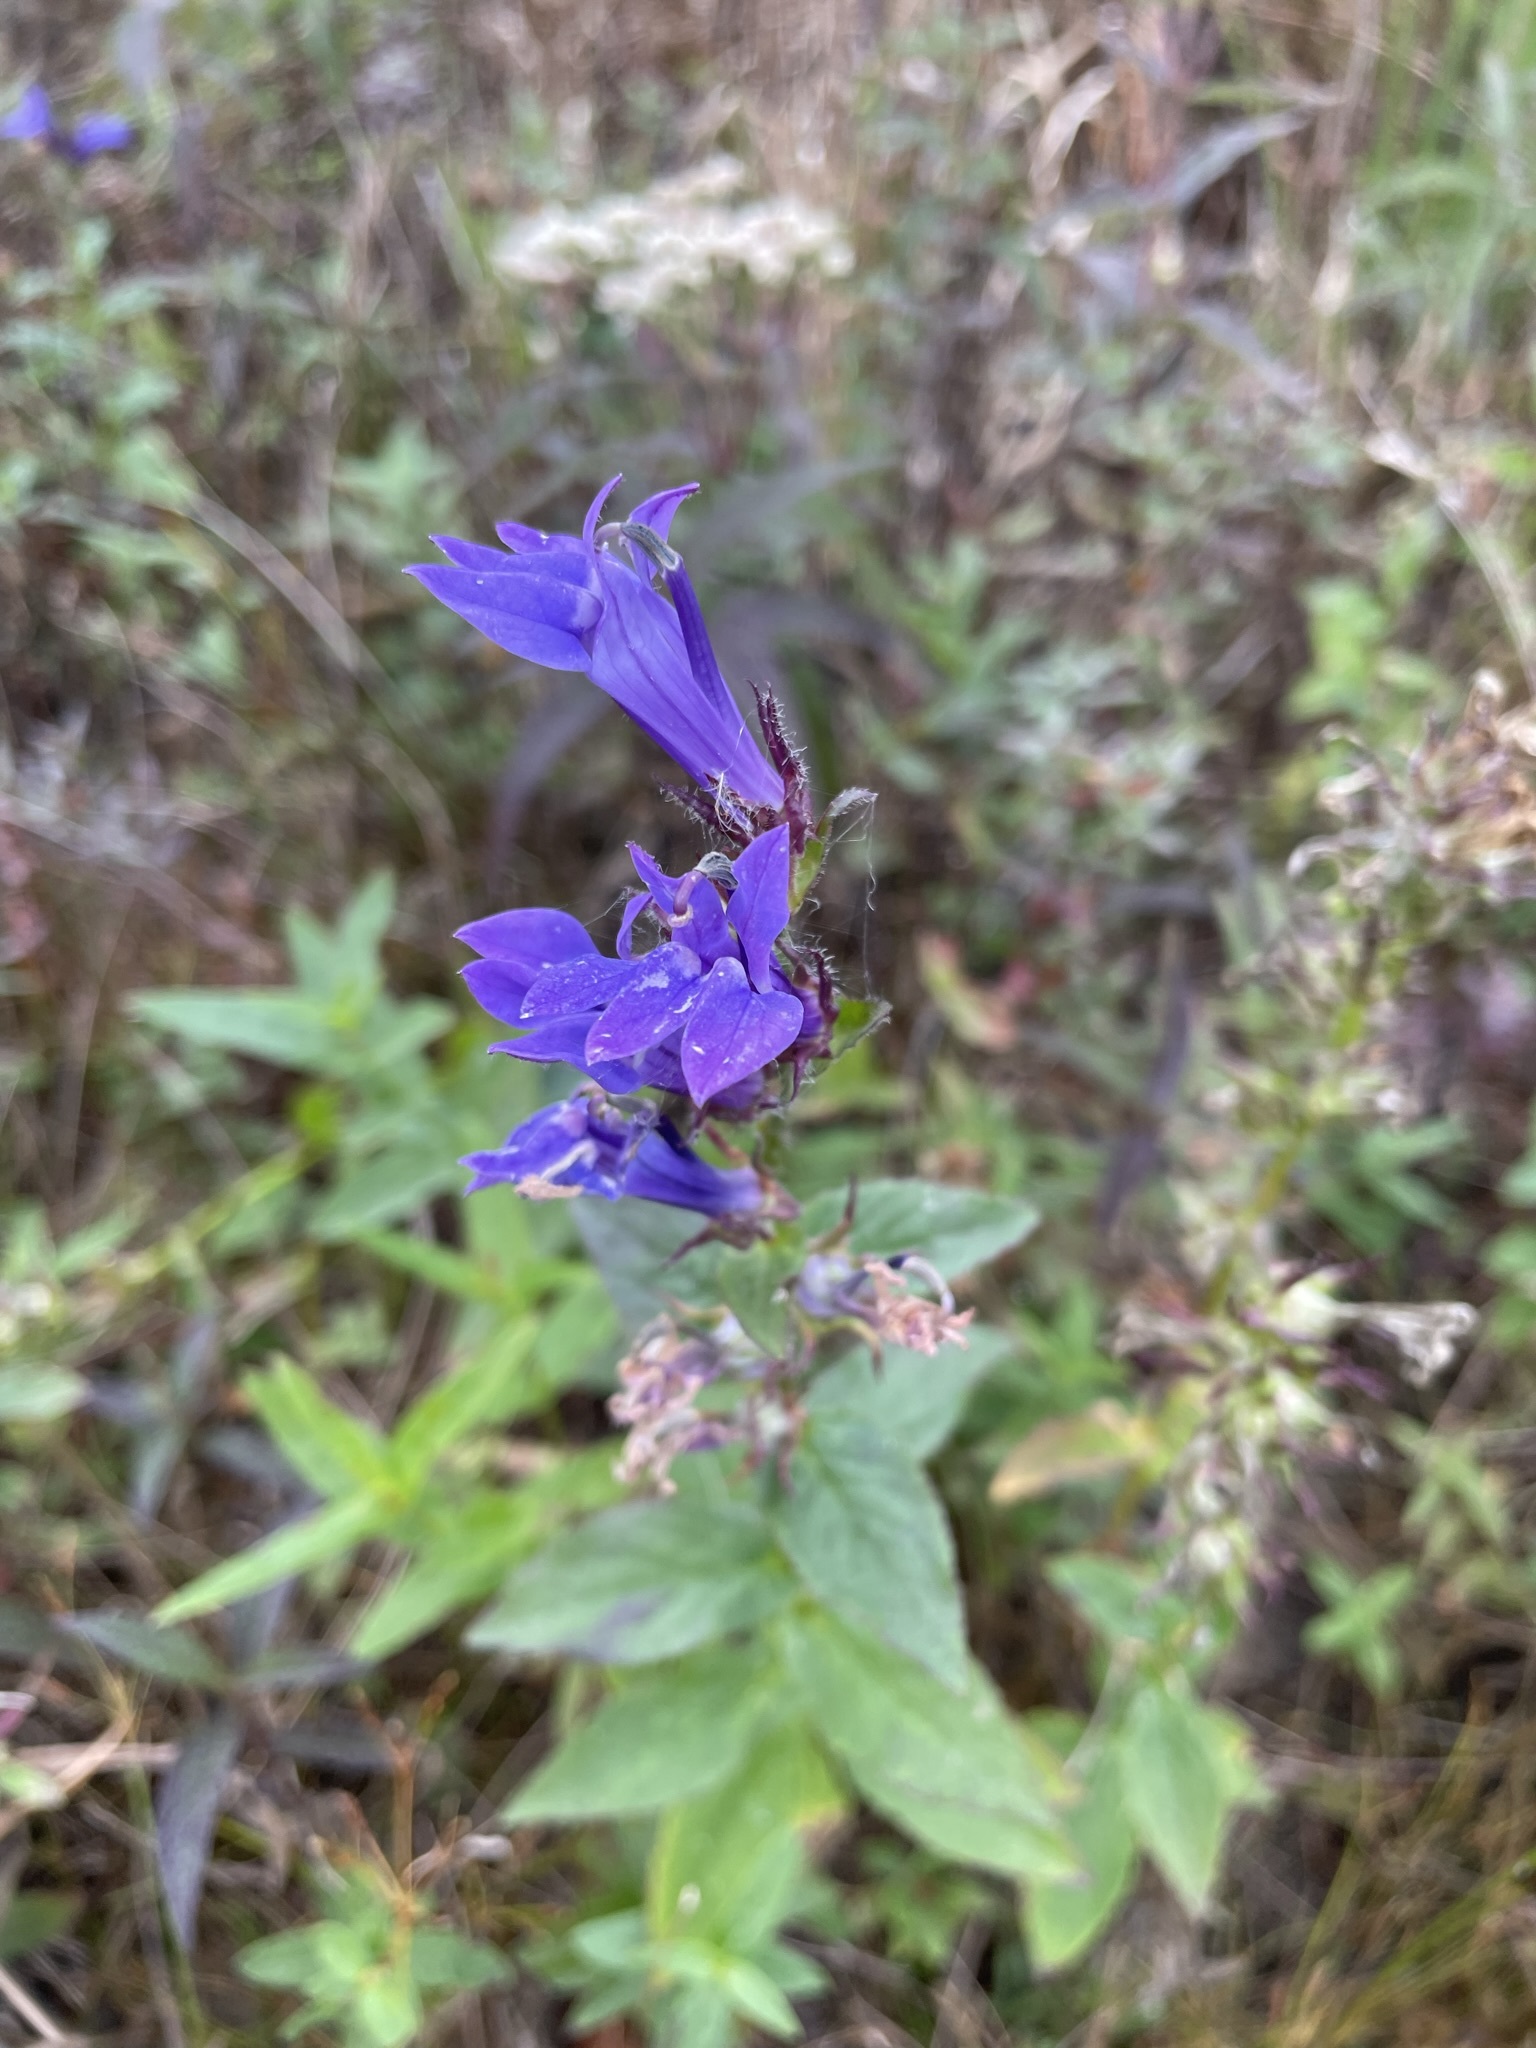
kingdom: Plantae
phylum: Tracheophyta
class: Magnoliopsida
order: Asterales
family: Campanulaceae
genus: Lobelia
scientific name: Lobelia siphilitica
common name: Great lobelia
